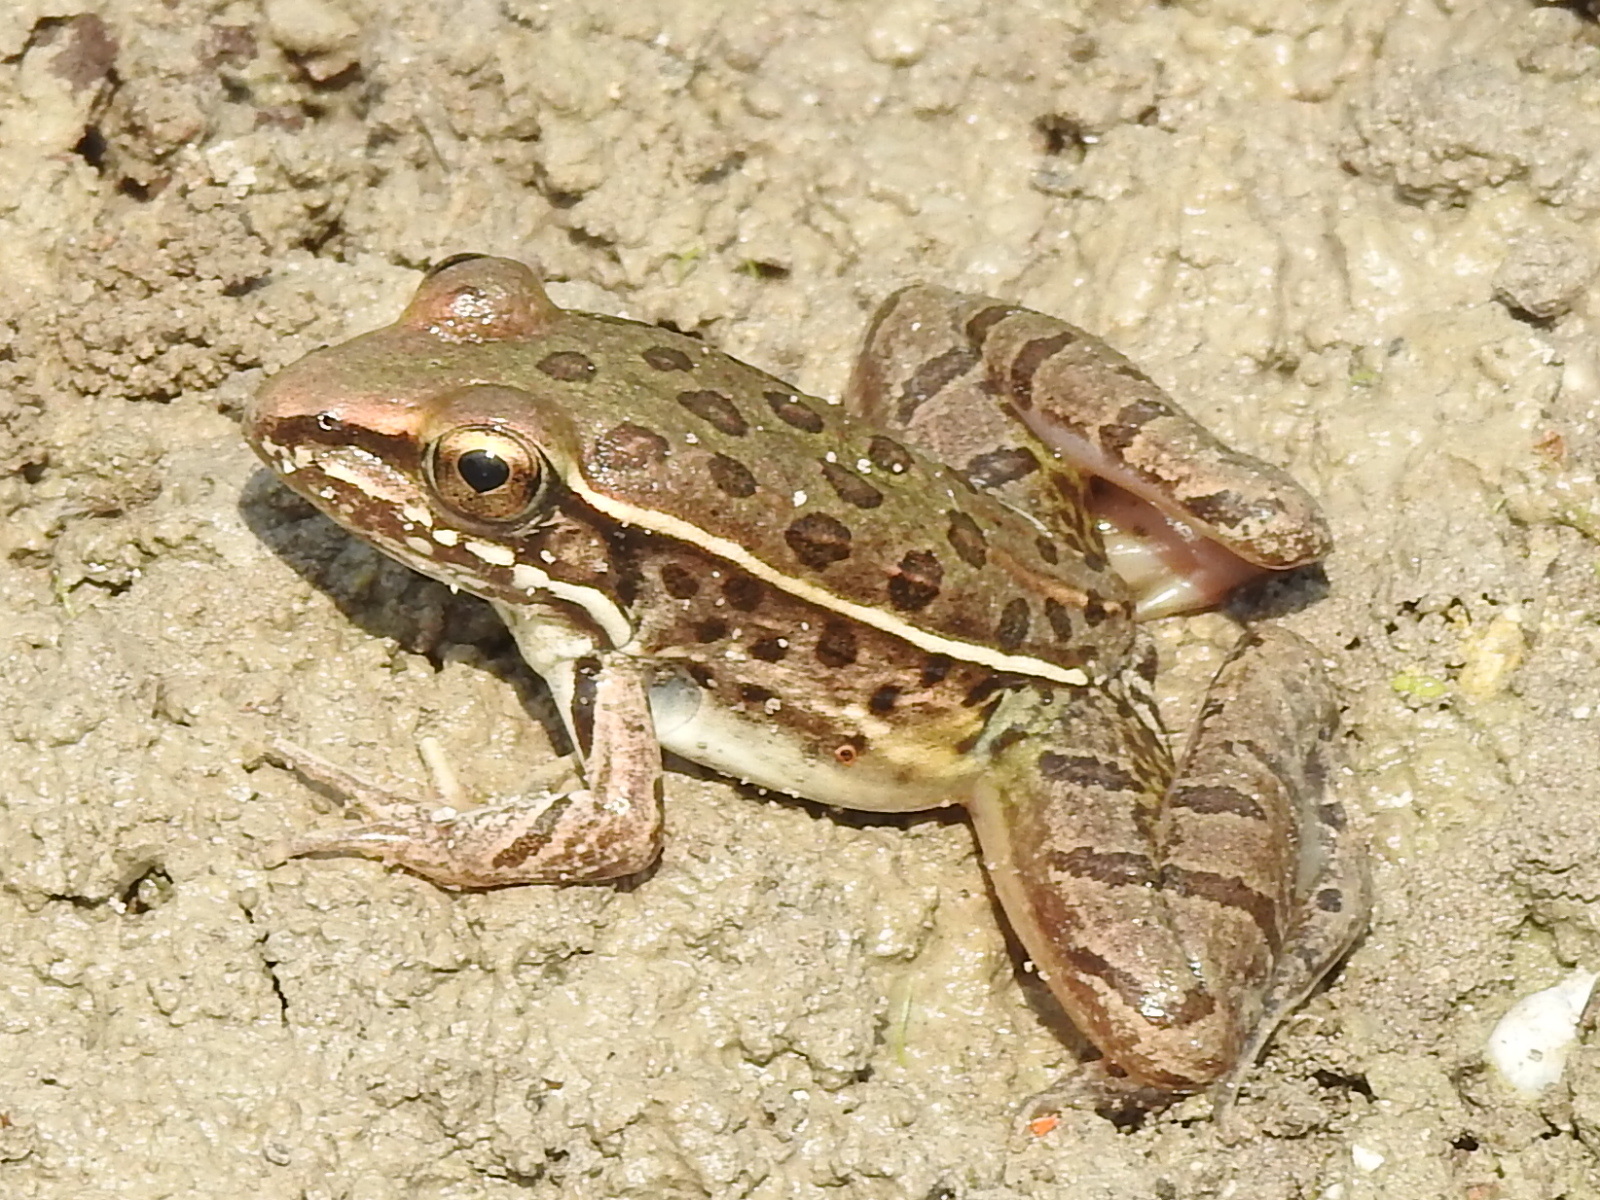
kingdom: Animalia
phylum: Chordata
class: Amphibia
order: Anura
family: Ranidae
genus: Lithobates
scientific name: Lithobates sphenocephalus
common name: Southern leopard frog
